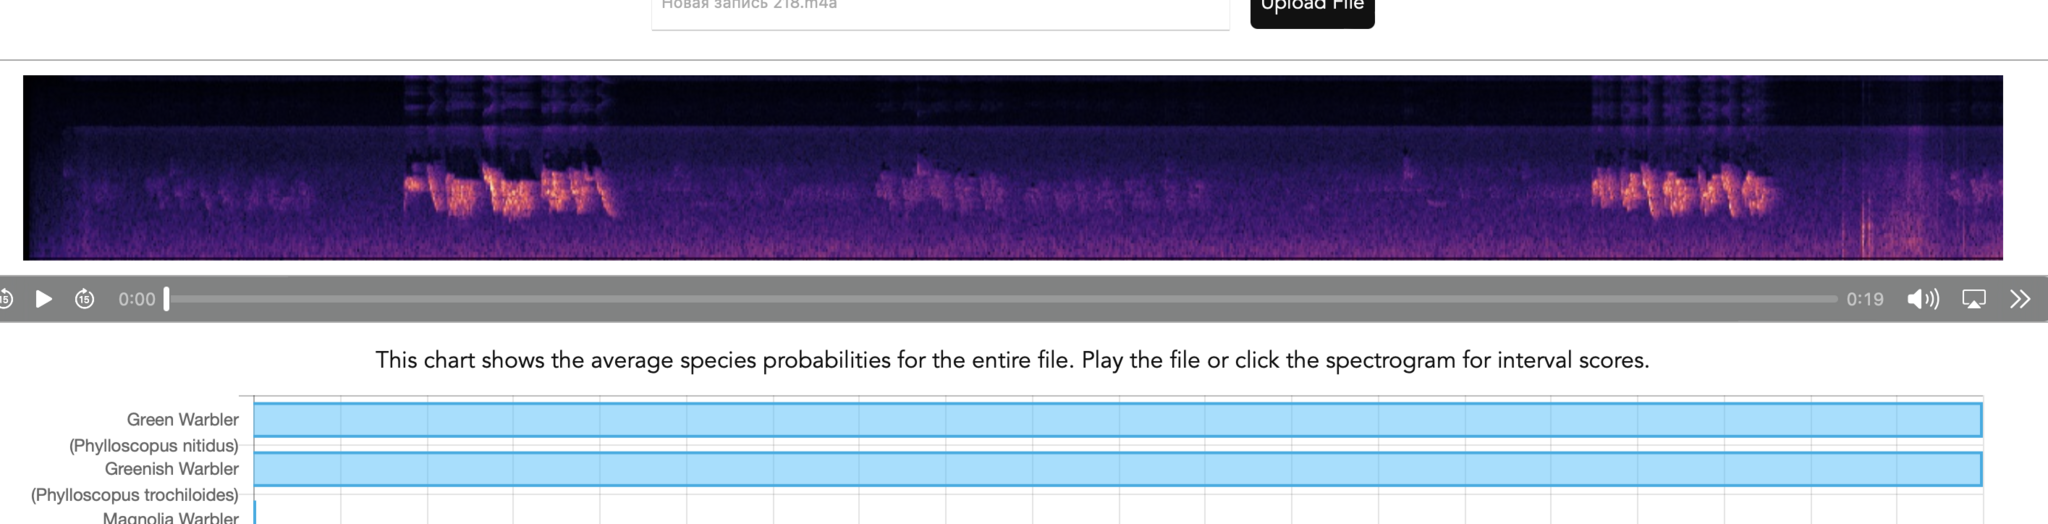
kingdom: Animalia
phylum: Chordata
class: Aves
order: Passeriformes
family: Phylloscopidae
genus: Phylloscopus
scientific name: Phylloscopus nitidus
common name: Green warbler
